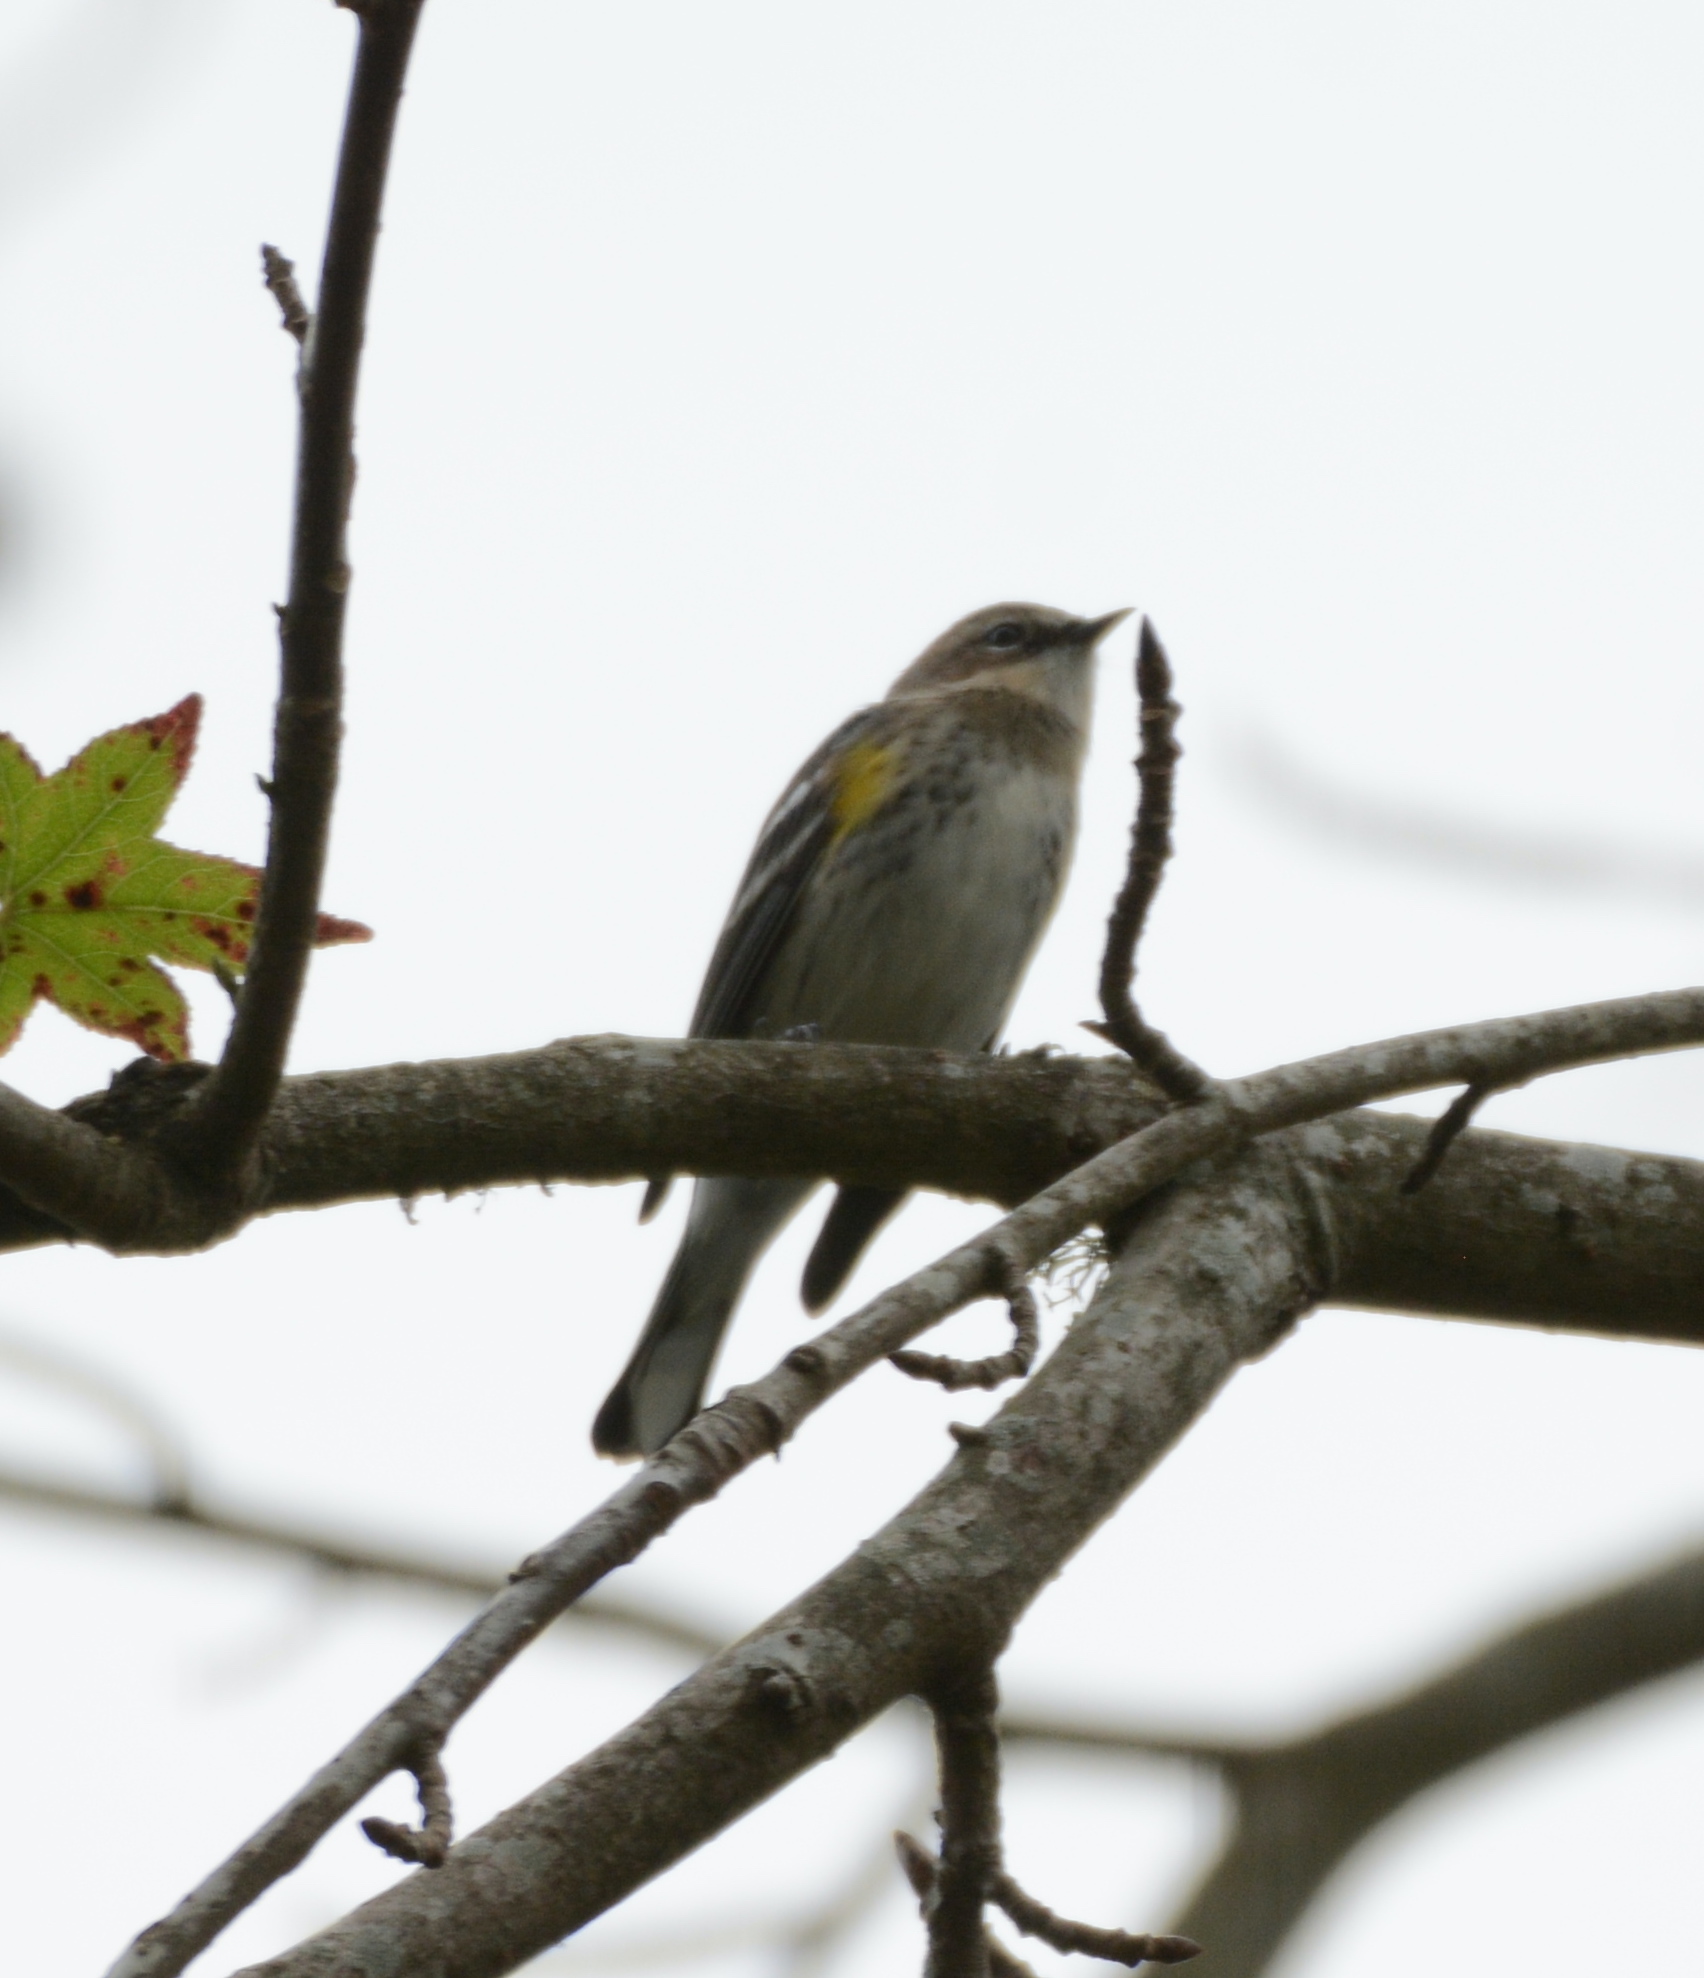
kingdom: Animalia
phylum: Chordata
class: Aves
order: Passeriformes
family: Parulidae
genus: Setophaga
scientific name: Setophaga coronata
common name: Myrtle warbler
